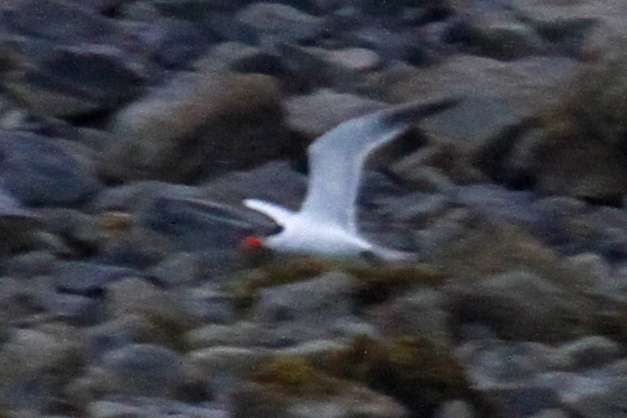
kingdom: Animalia
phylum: Chordata
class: Aves
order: Charadriiformes
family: Laridae
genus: Hydroprogne
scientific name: Hydroprogne caspia
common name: Caspian tern
